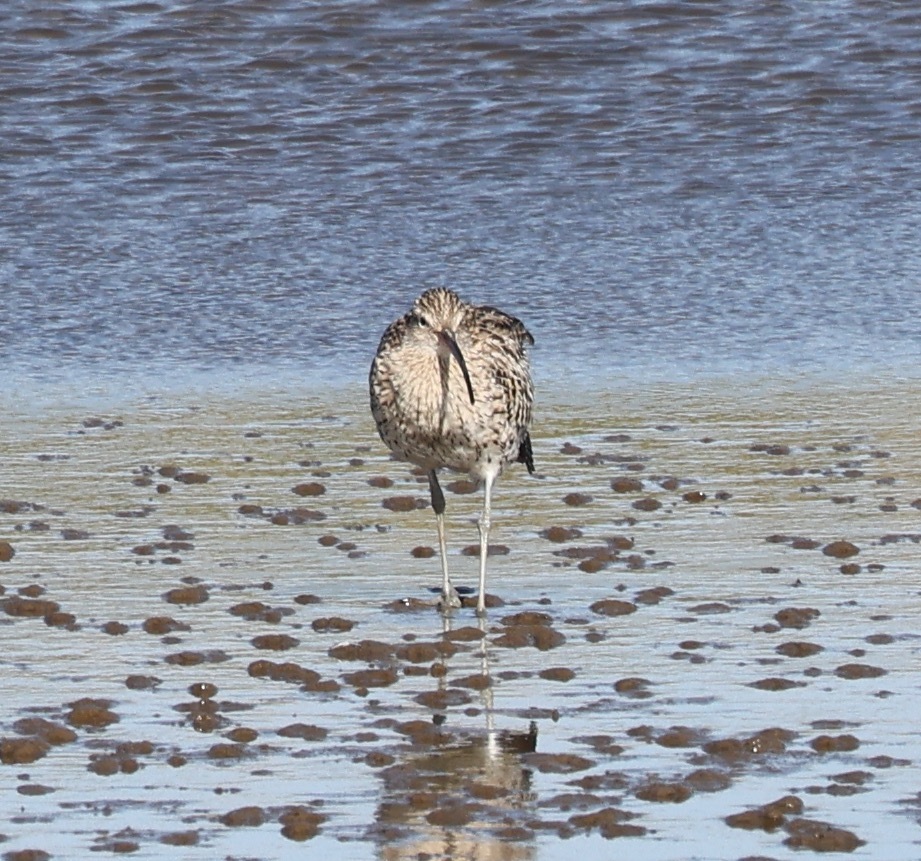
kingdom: Animalia
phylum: Chordata
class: Aves
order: Charadriiformes
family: Scolopacidae
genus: Numenius
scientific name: Numenius arquata
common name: Eurasian curlew
